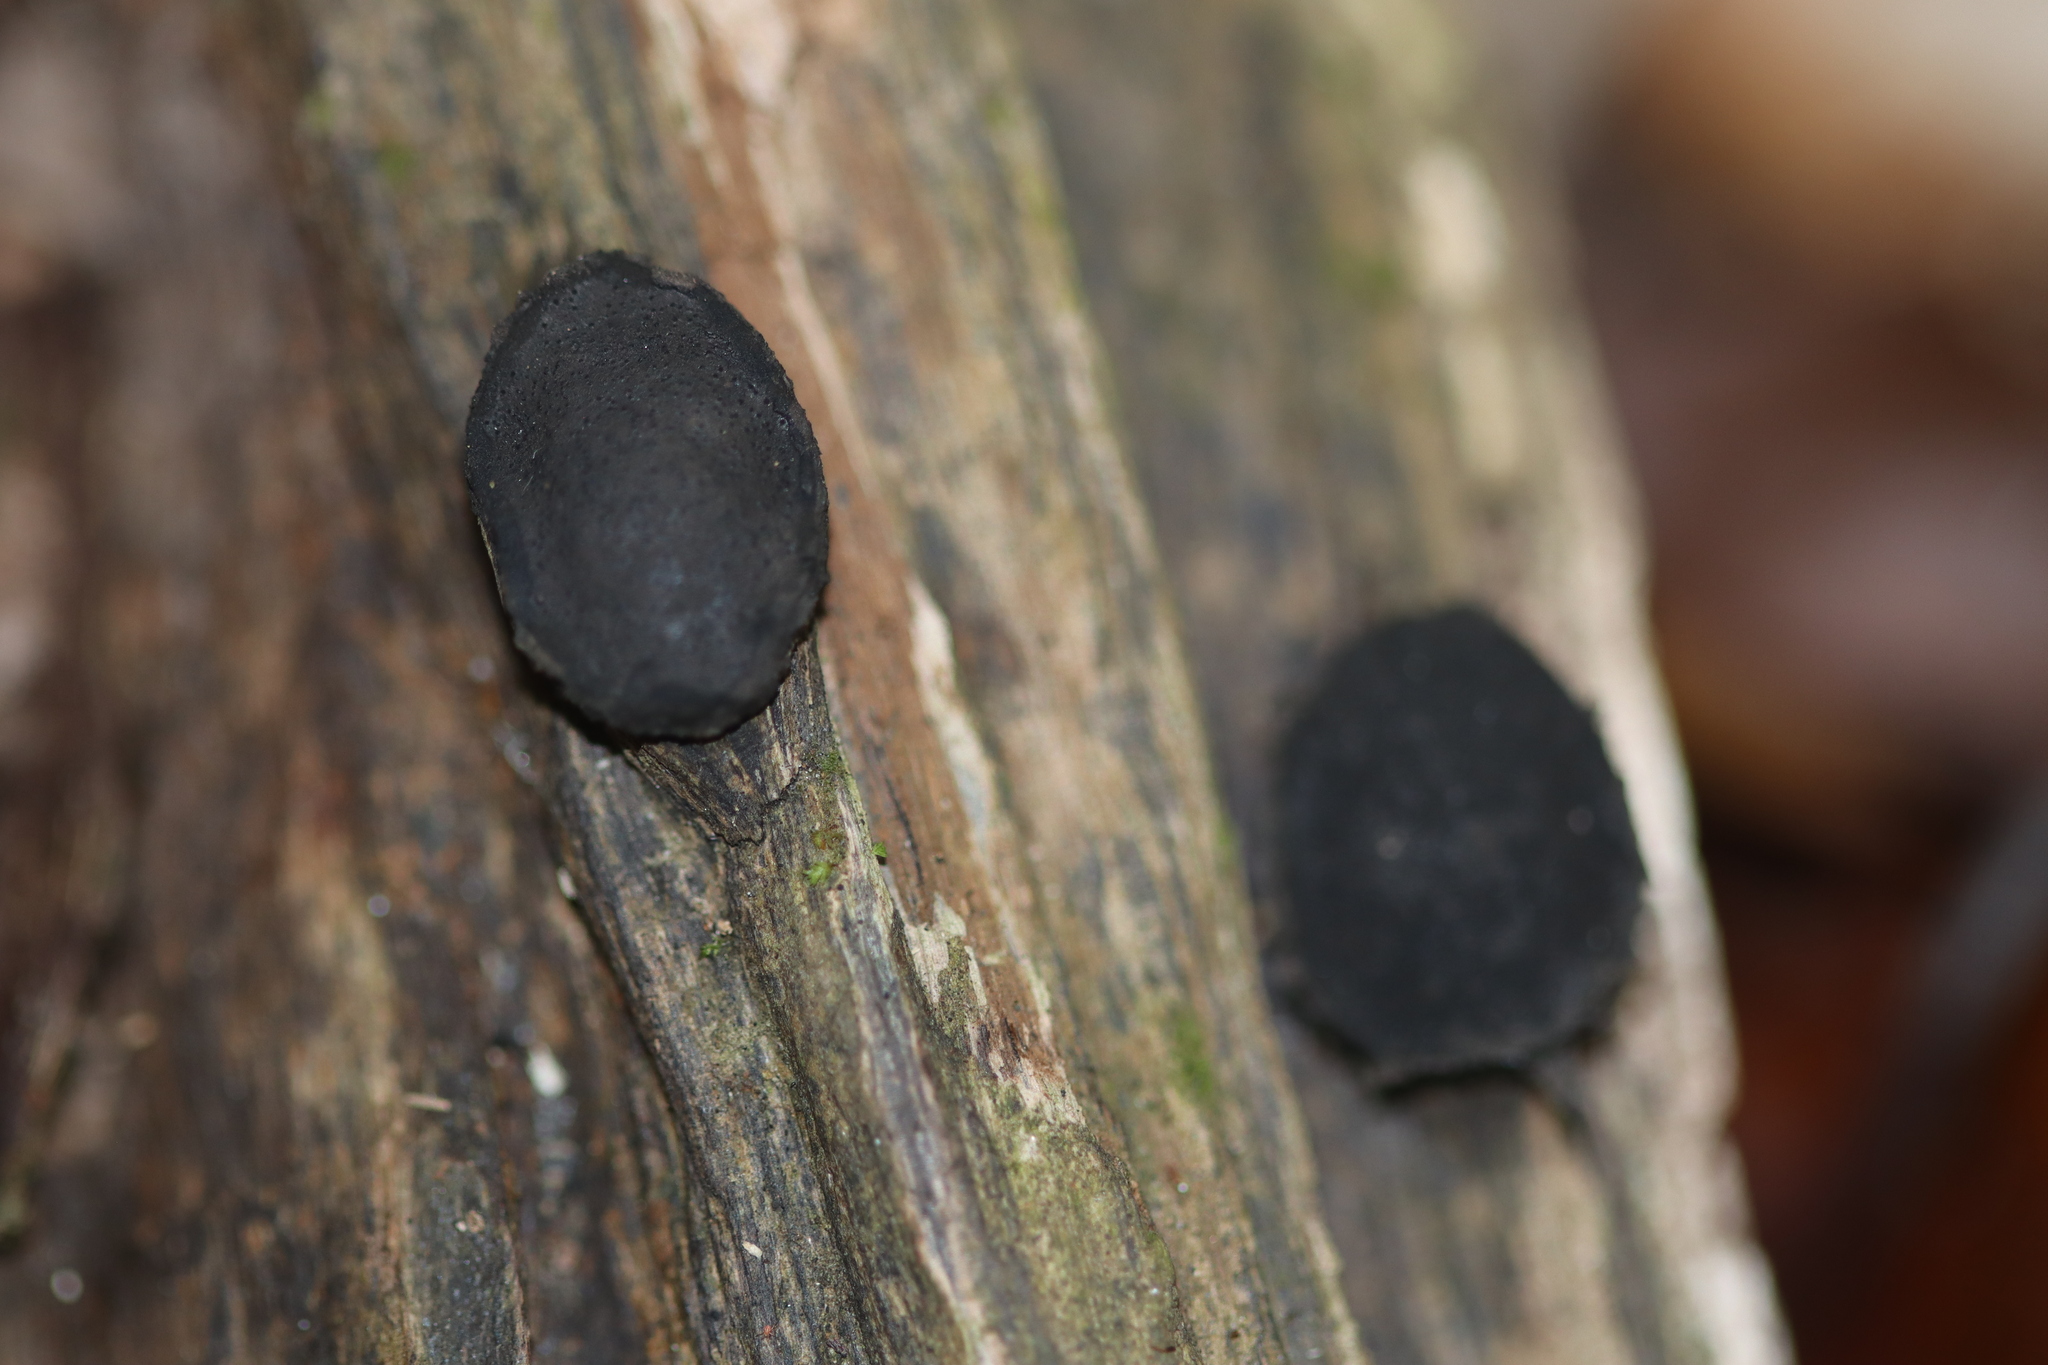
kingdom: Fungi
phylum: Ascomycota
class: Sordariomycetes
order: Xylariales
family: Xylariaceae
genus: Whalleya
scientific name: Whalleya microplaca
